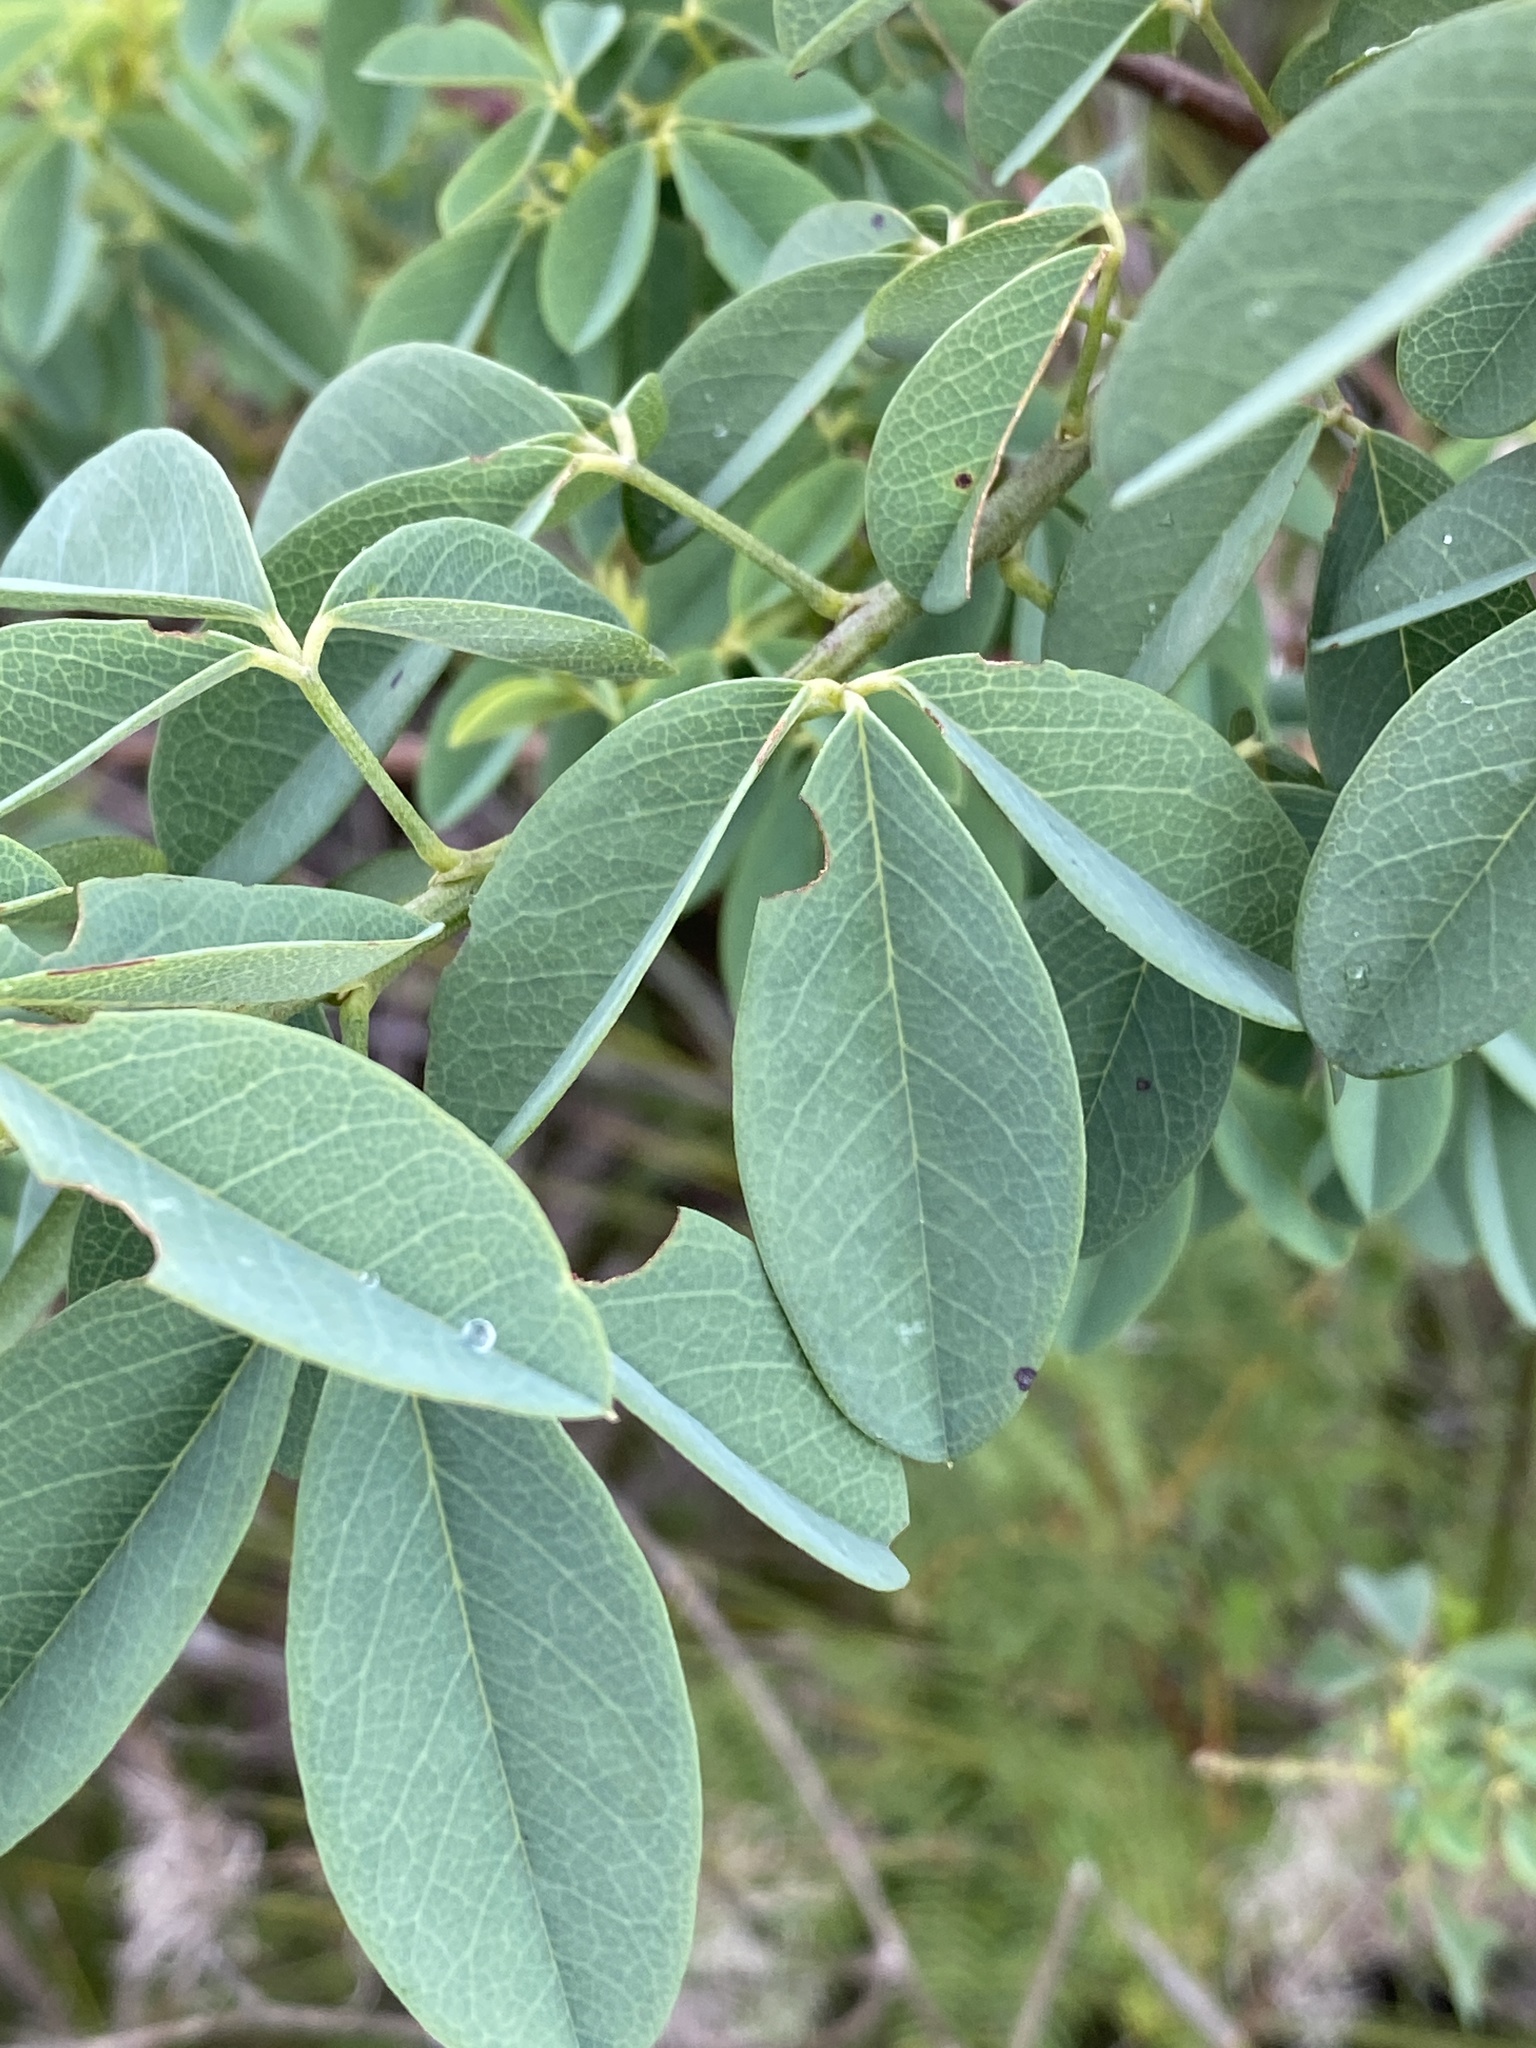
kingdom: Plantae
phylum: Tracheophyta
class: Magnoliopsida
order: Fabales
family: Fabaceae
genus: Hypocalyptus
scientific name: Hypocalyptus coluteoides
